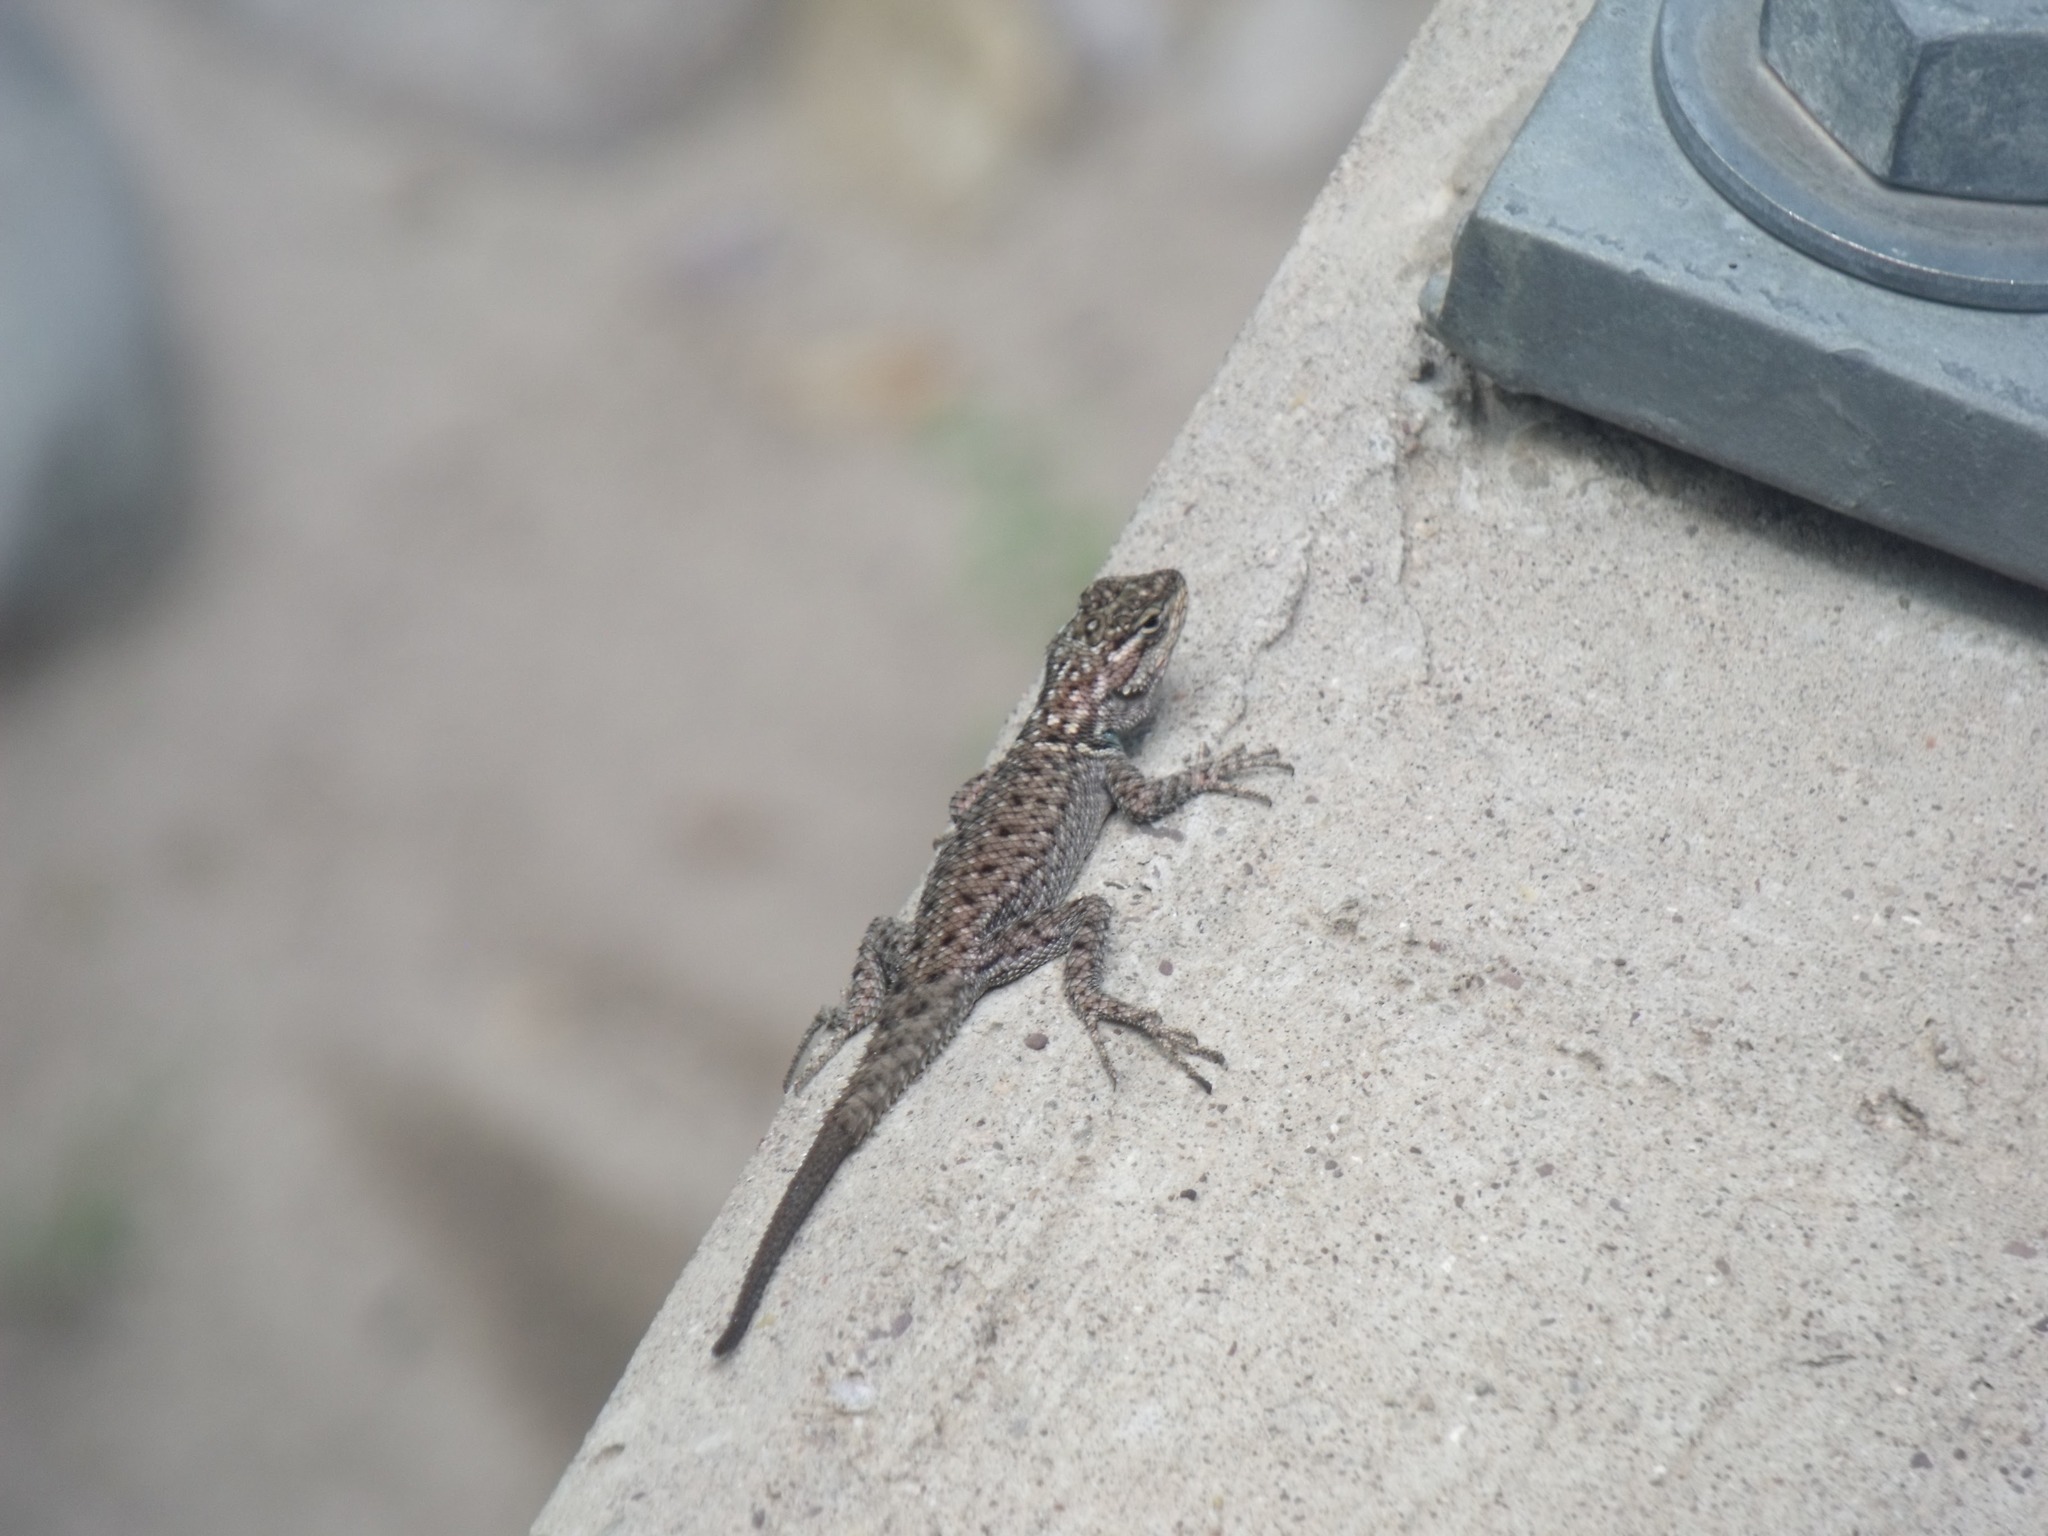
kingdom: Animalia
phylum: Chordata
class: Squamata
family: Phrynosomatidae
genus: Sceloporus
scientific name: Sceloporus jarrovii
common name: Yarrow's spiny lizard
